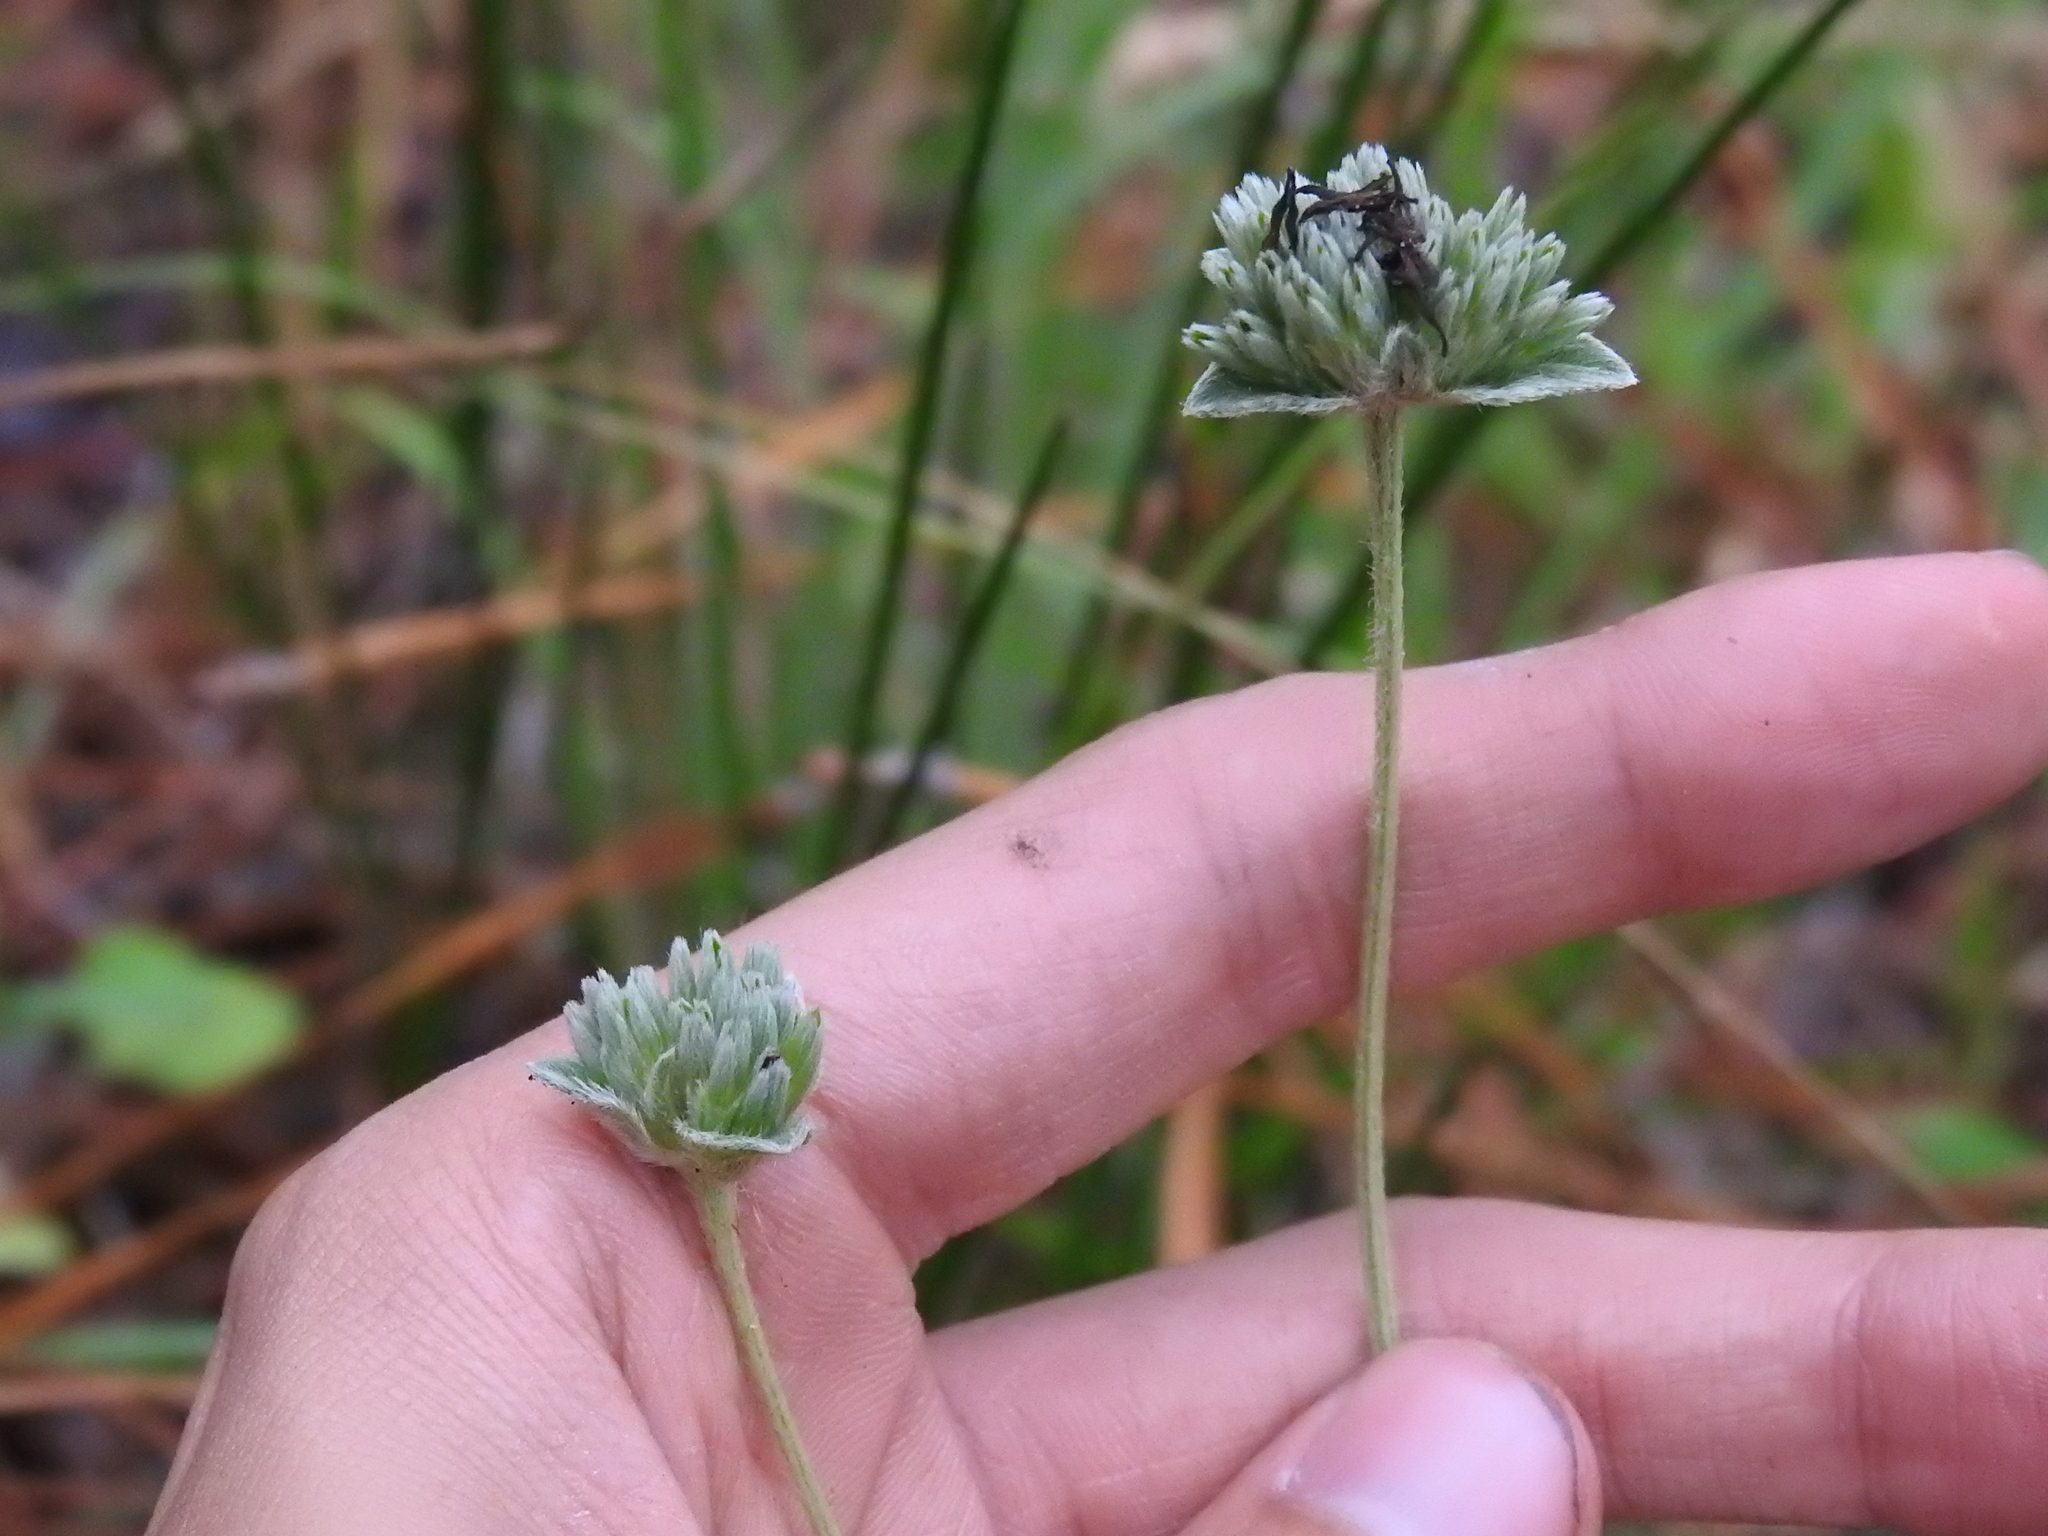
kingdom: Plantae
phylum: Tracheophyta
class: Magnoliopsida
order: Asterales
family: Asteraceae
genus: Elephantopus
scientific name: Elephantopus elatus
